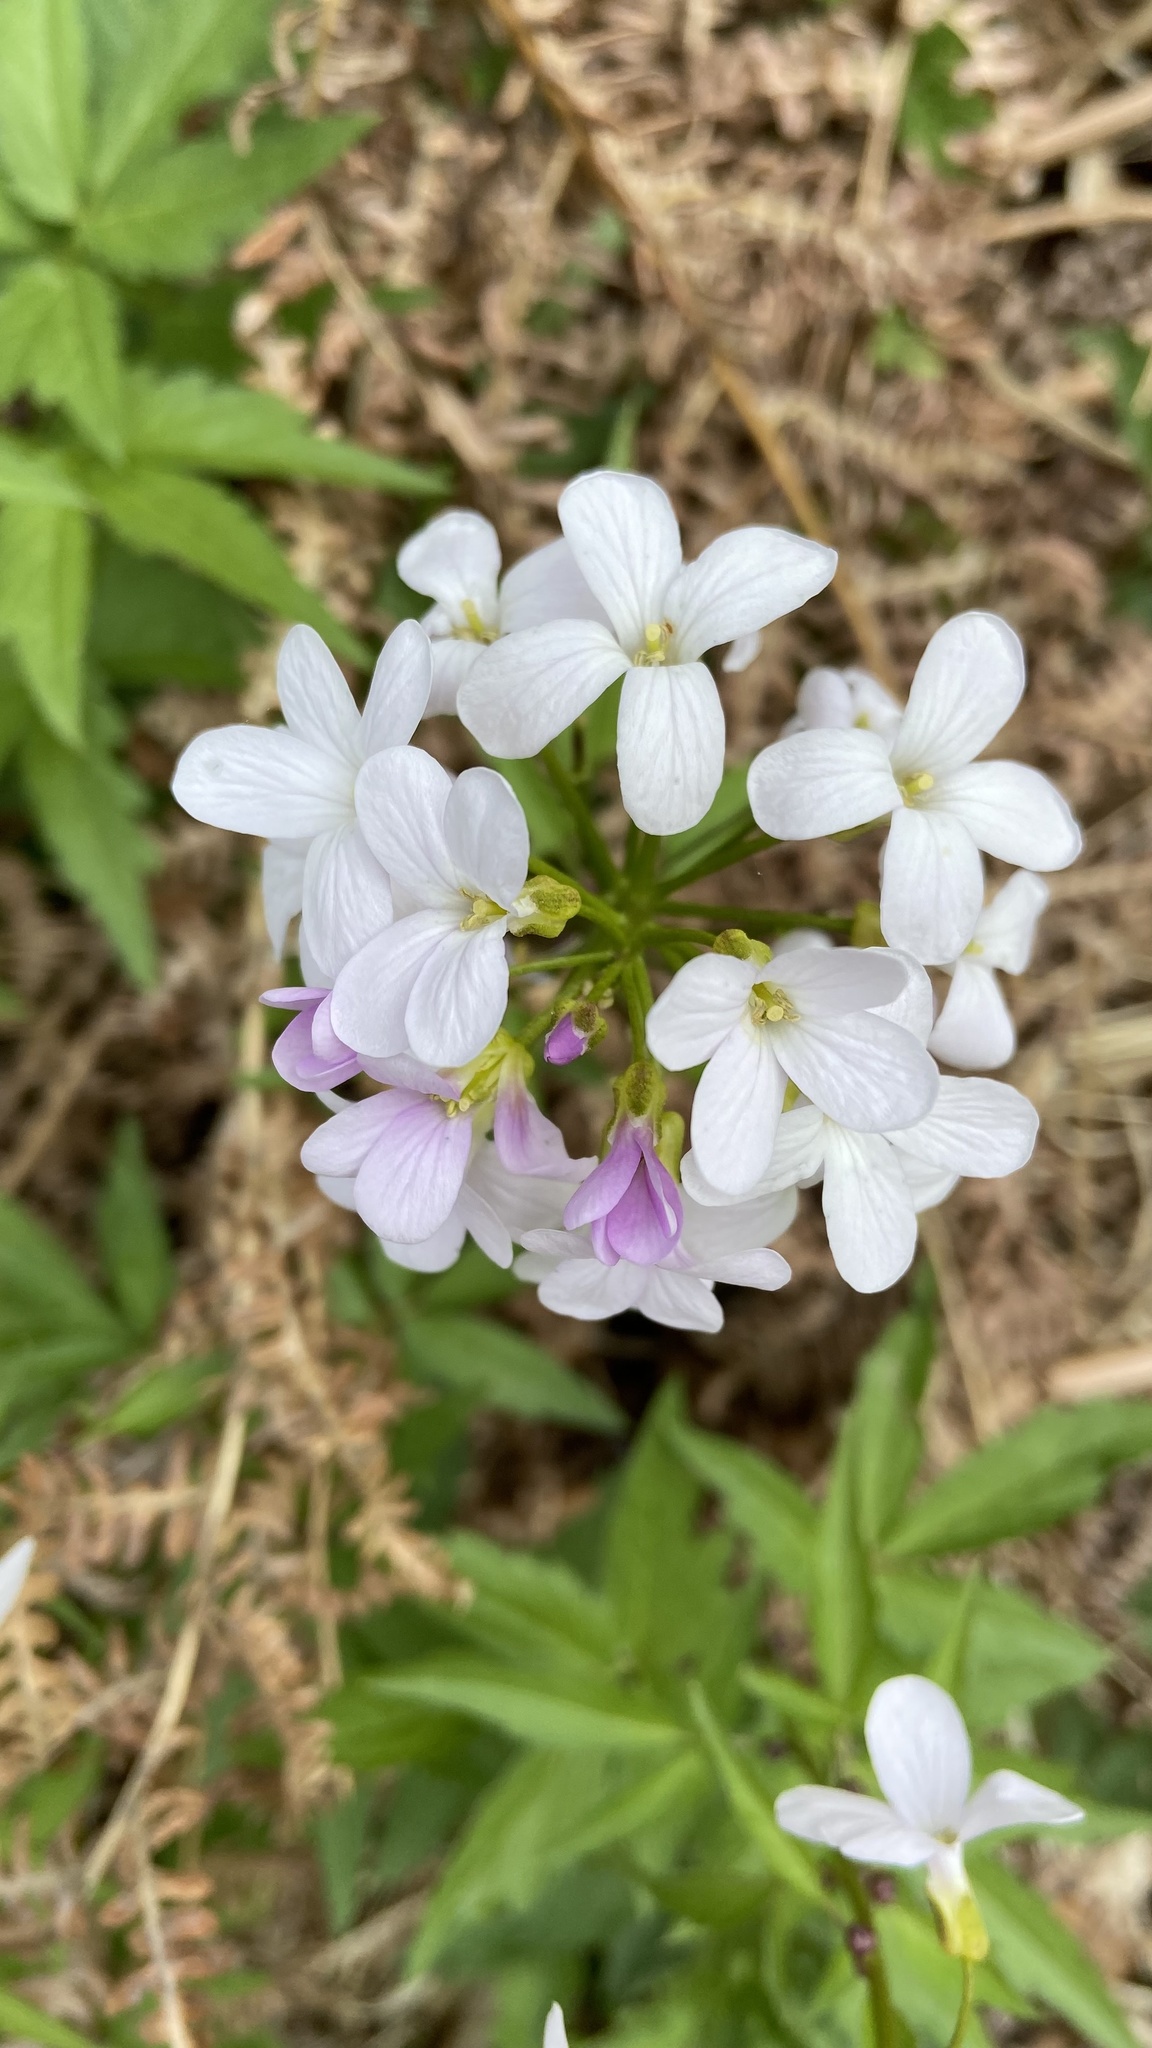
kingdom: Plantae
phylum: Tracheophyta
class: Magnoliopsida
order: Brassicales
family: Brassicaceae
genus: Cardamine
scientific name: Cardamine bulbifera
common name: Coralroot bittercress
